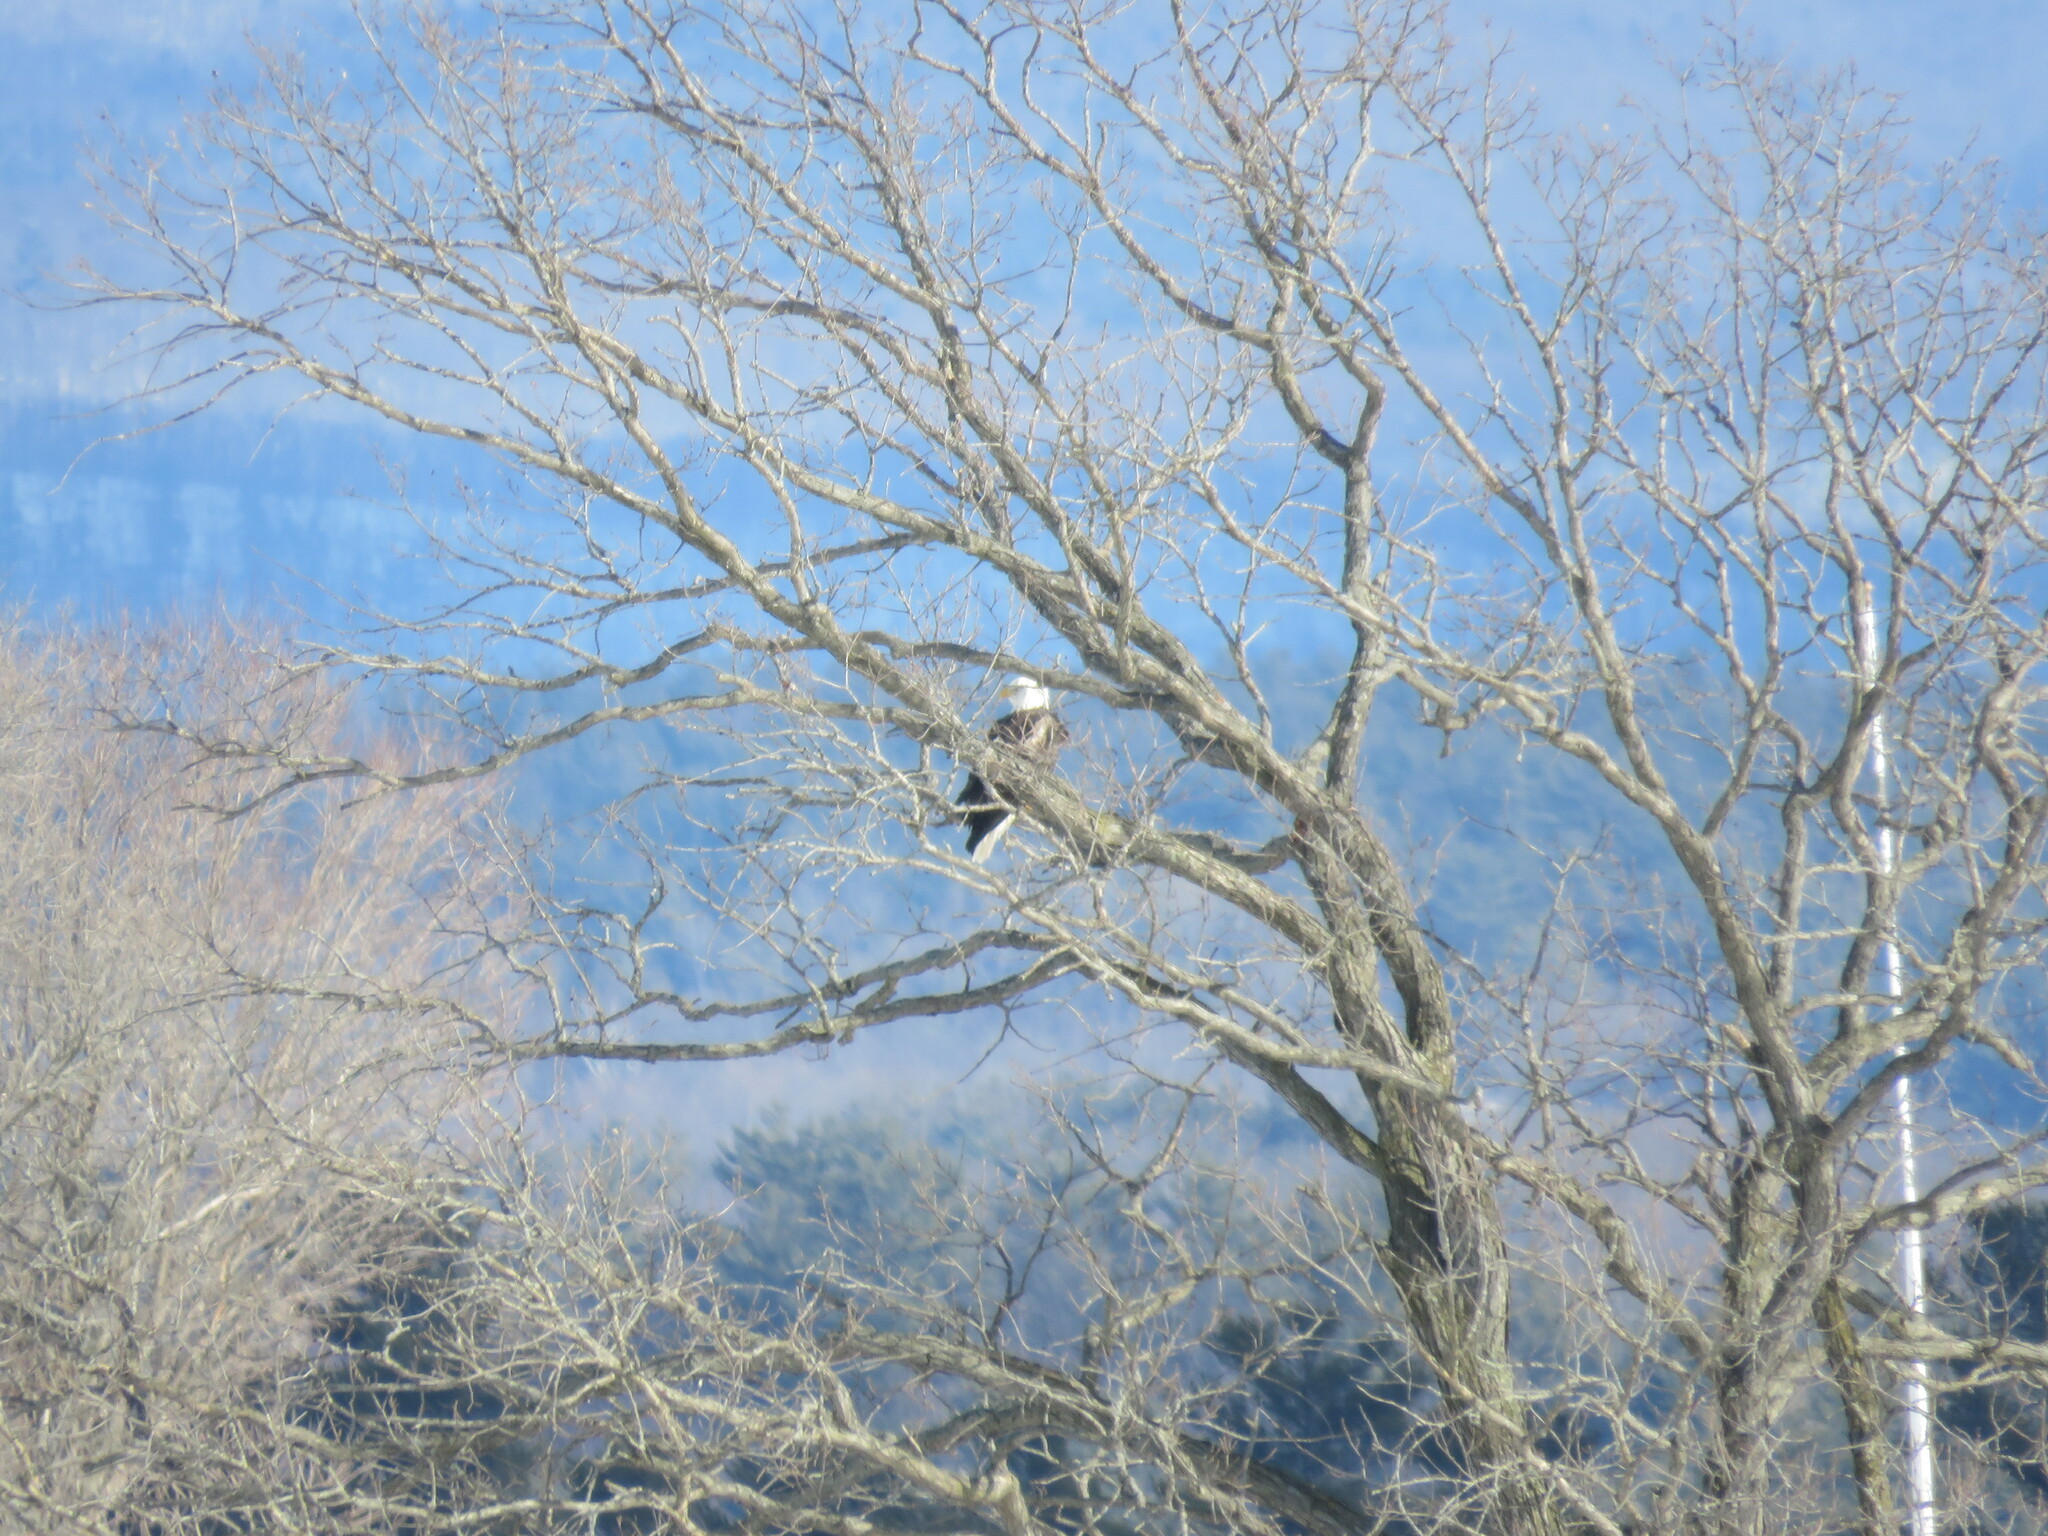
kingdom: Animalia
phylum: Chordata
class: Aves
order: Accipitriformes
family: Accipitridae
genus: Haliaeetus
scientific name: Haliaeetus leucocephalus
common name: Bald eagle
